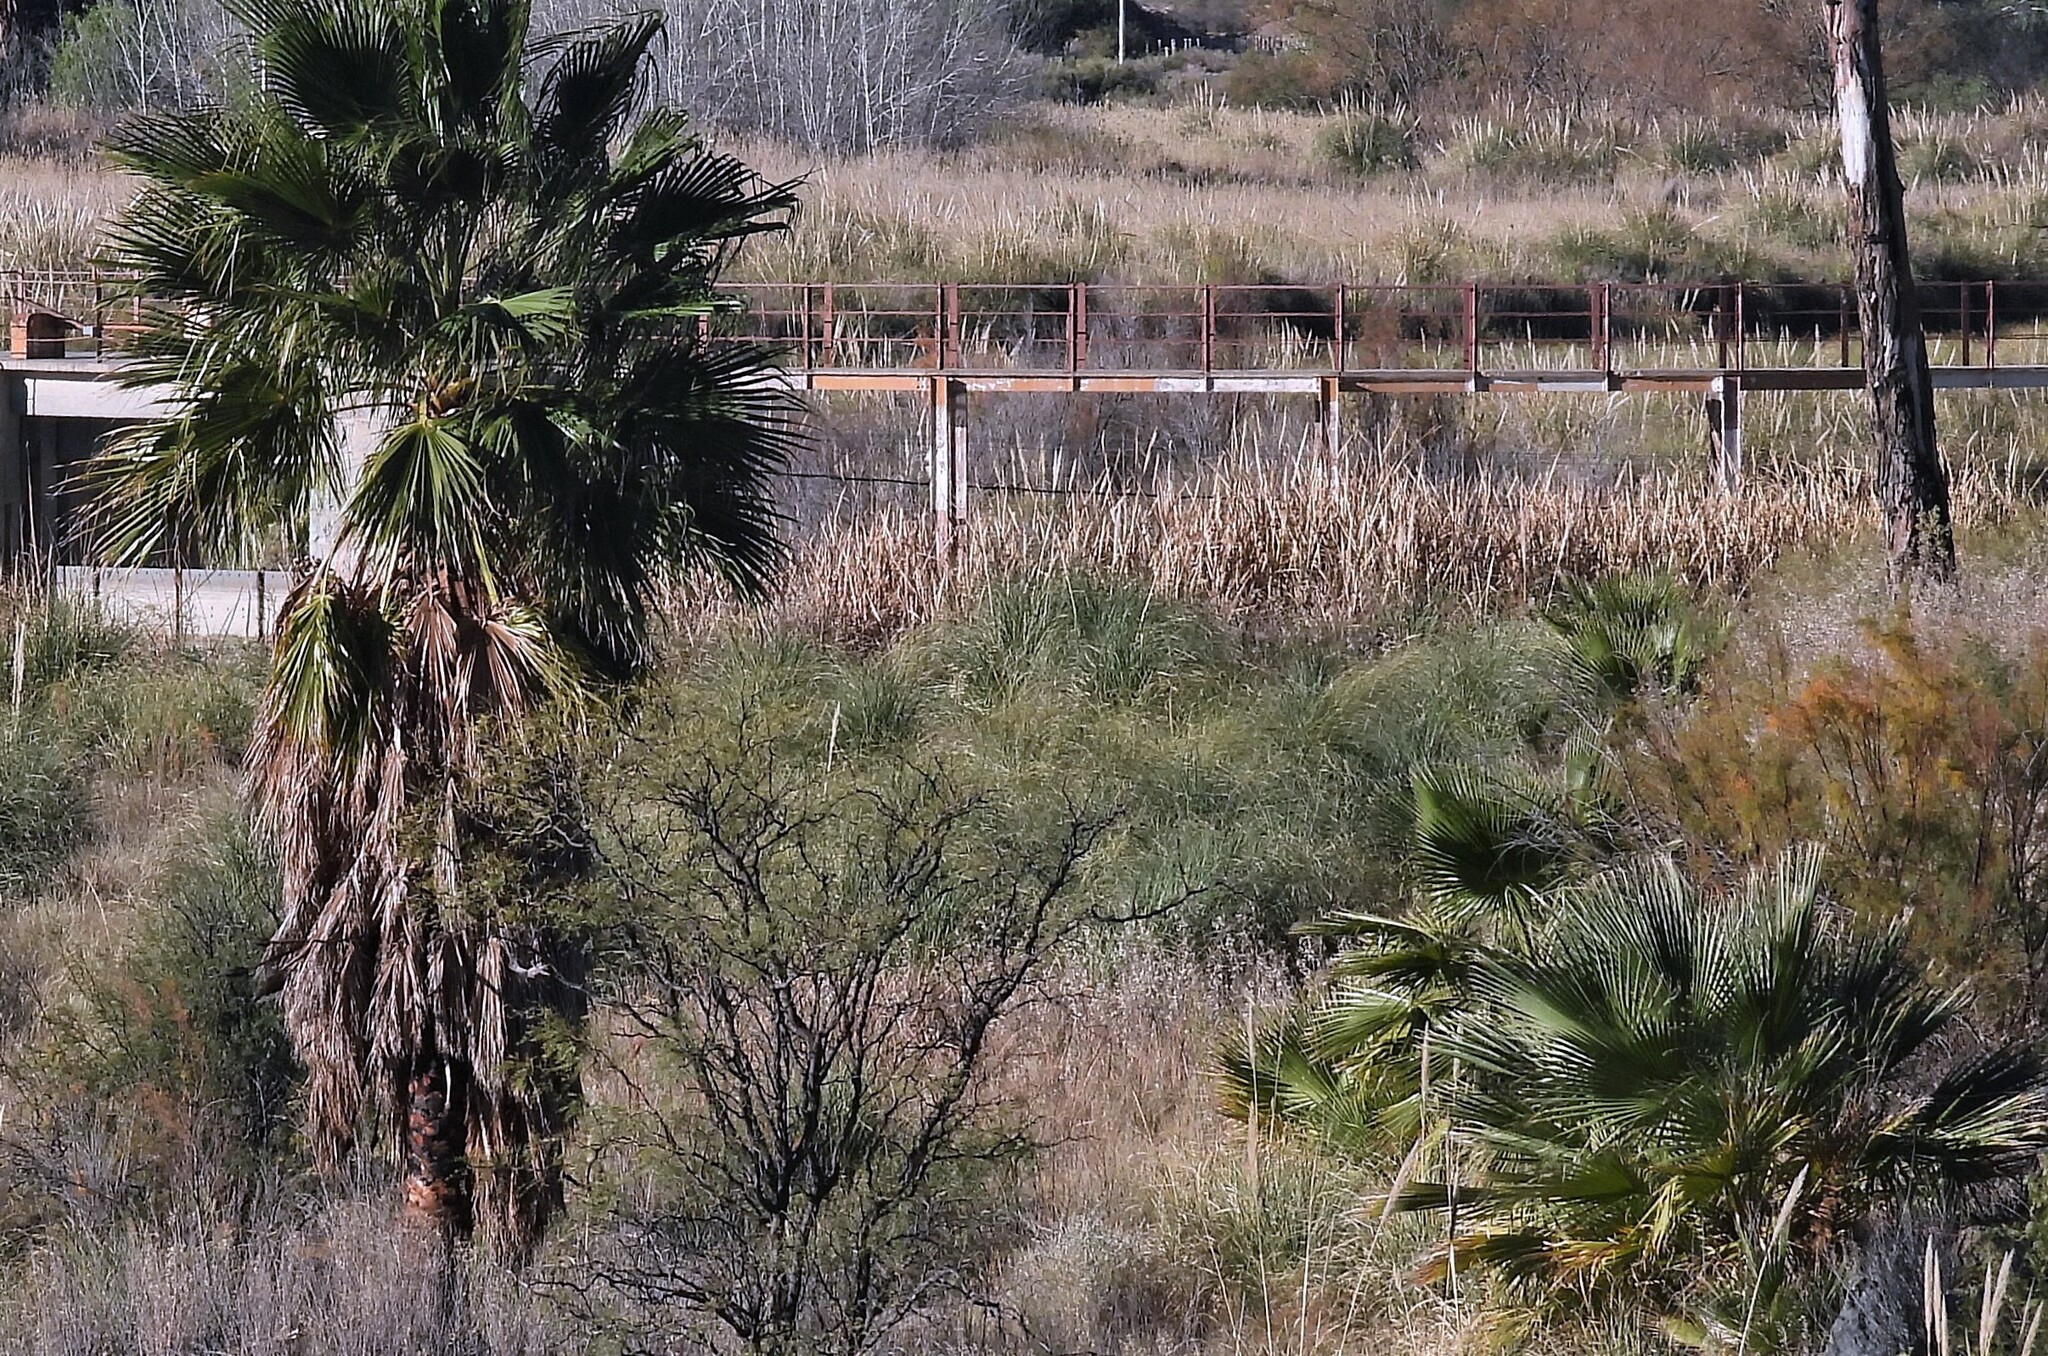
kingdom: Plantae
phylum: Tracheophyta
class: Liliopsida
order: Arecales
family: Arecaceae
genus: Washingtonia
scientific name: Washingtonia robusta
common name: Mexican fan palm
